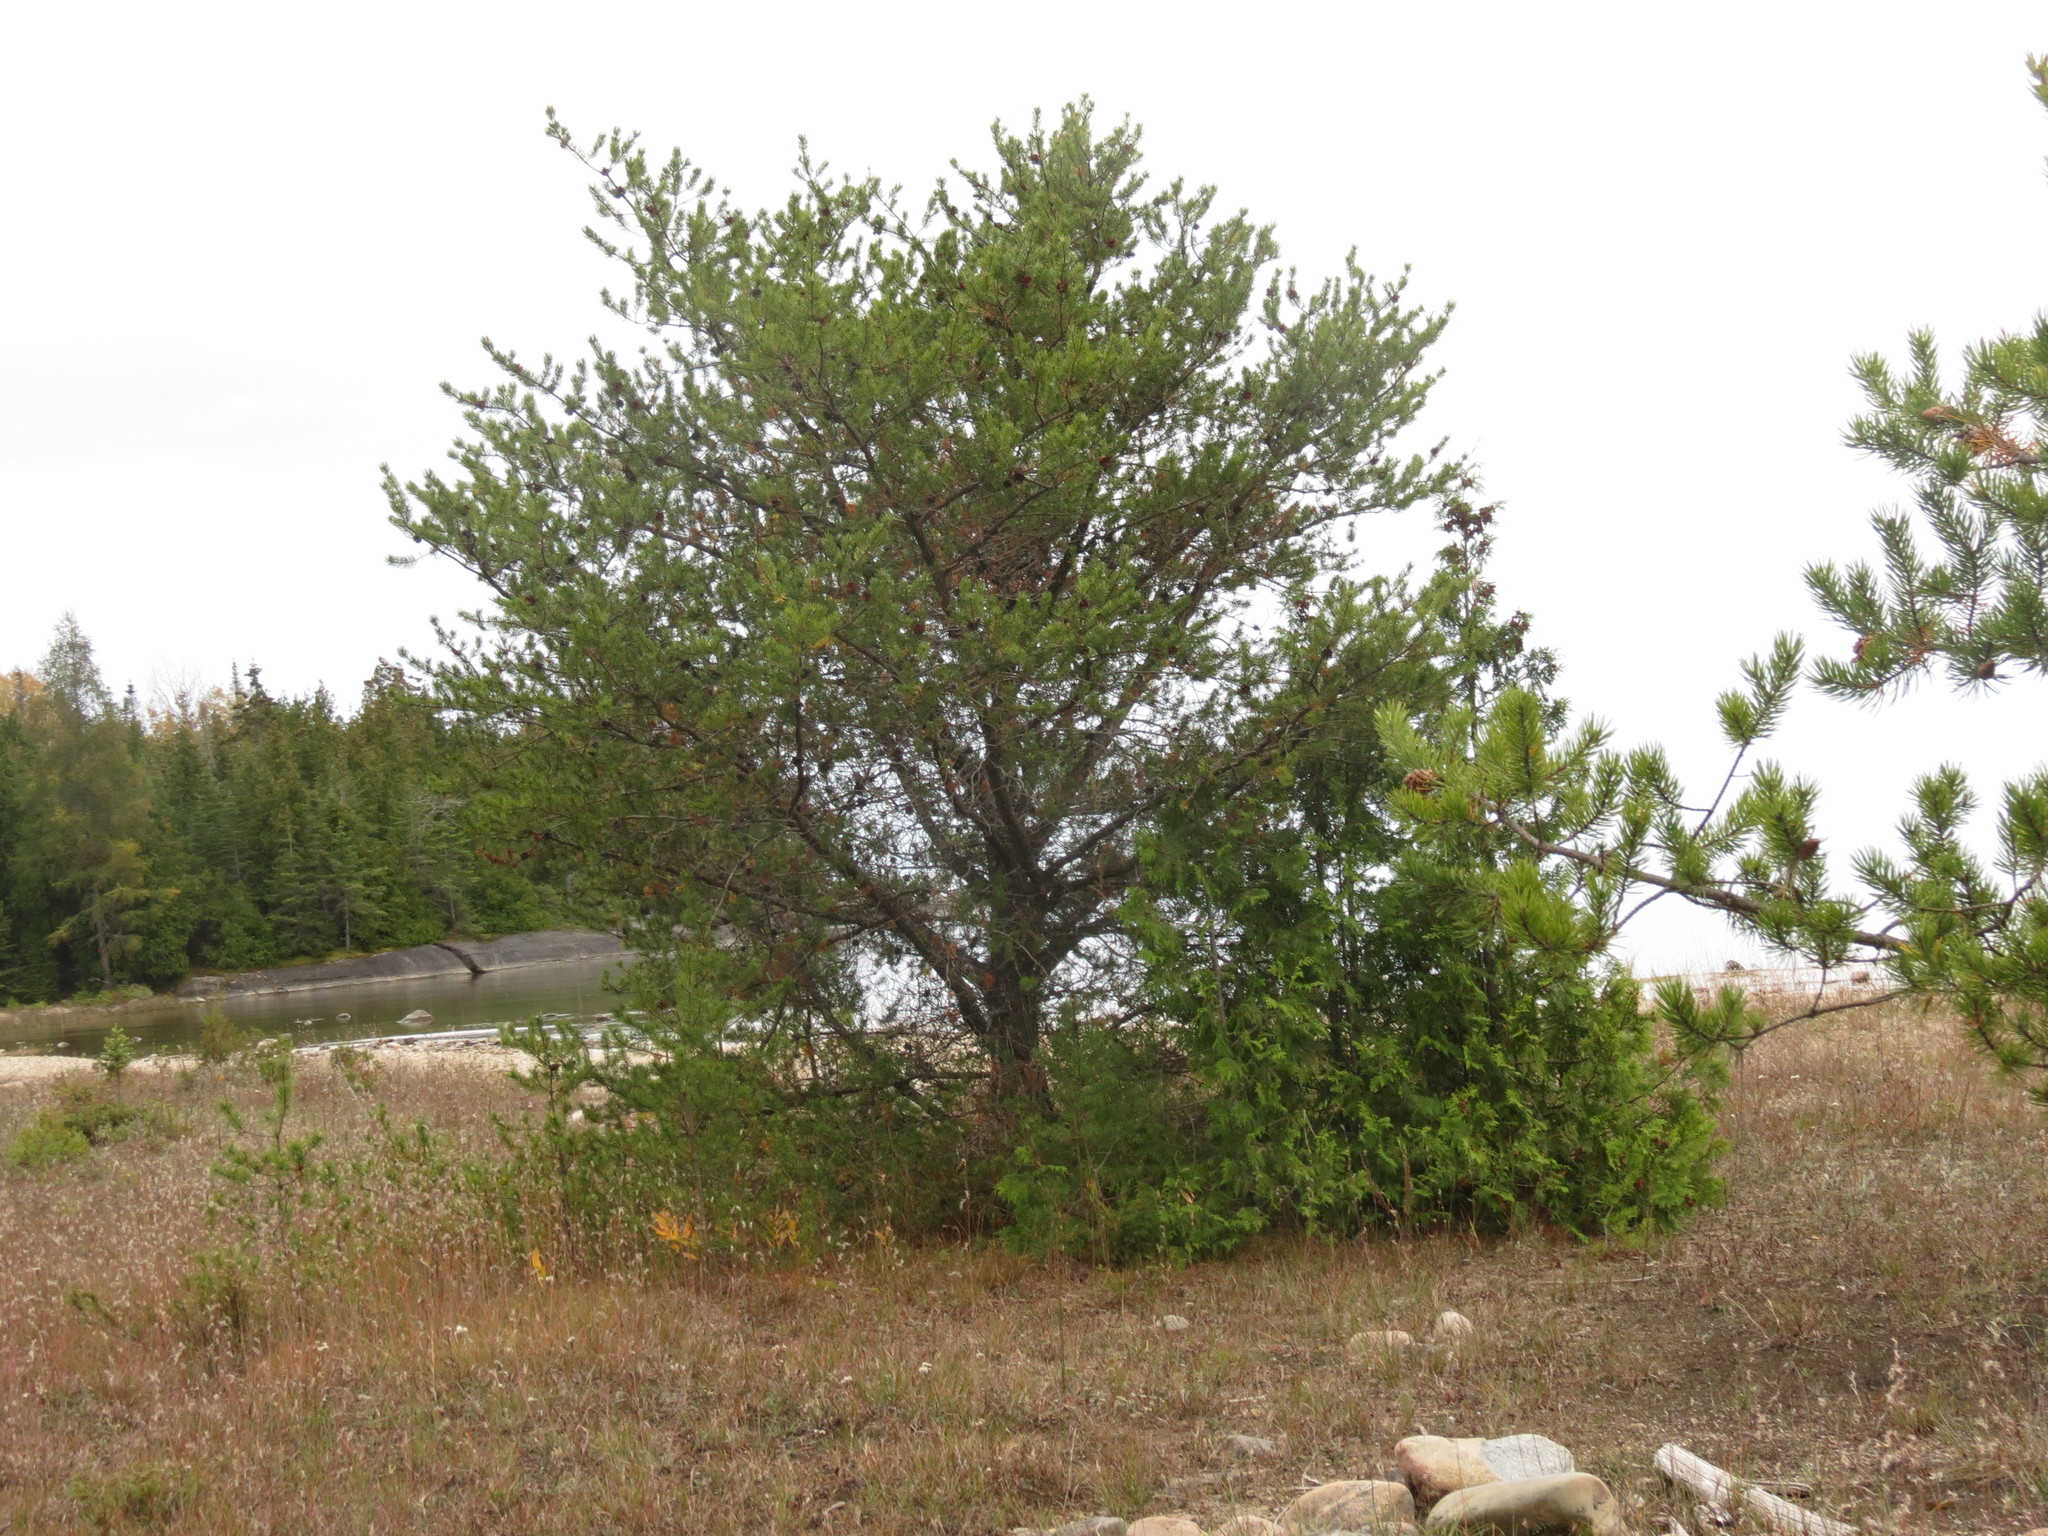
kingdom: Plantae
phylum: Tracheophyta
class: Pinopsida
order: Pinales
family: Pinaceae
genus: Pinus
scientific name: Pinus banksiana
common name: Jack pine
